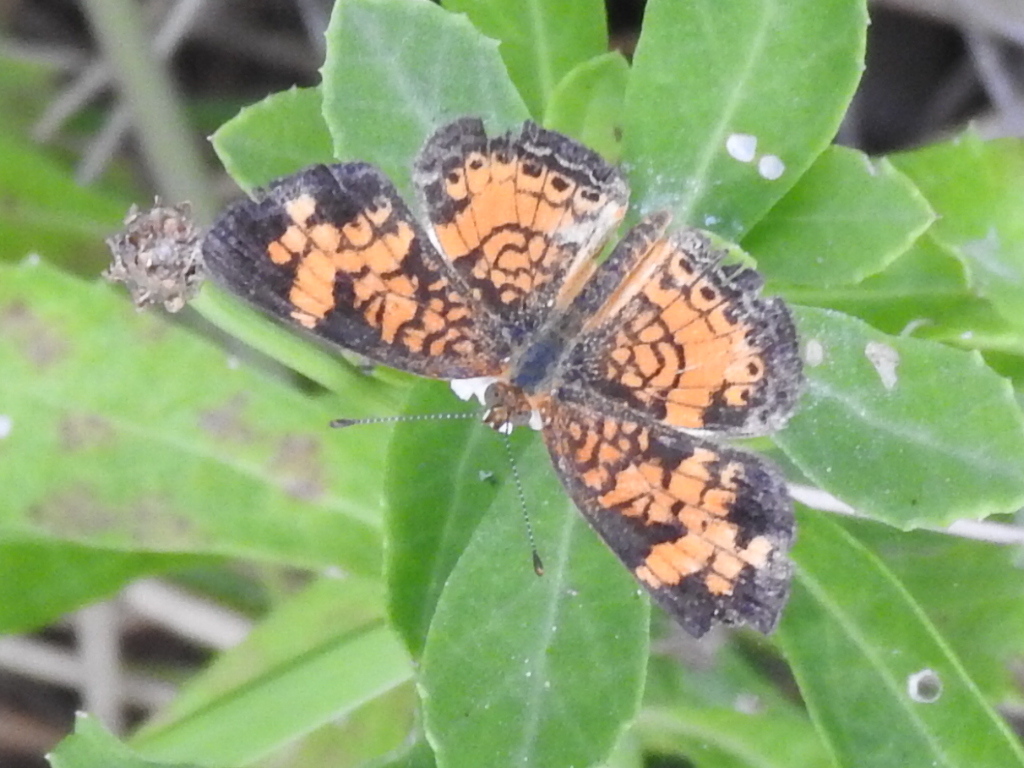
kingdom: Animalia
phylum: Arthropoda
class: Insecta
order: Lepidoptera
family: Nymphalidae
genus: Phyciodes
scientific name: Phyciodes tharos
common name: Pearl crescent
